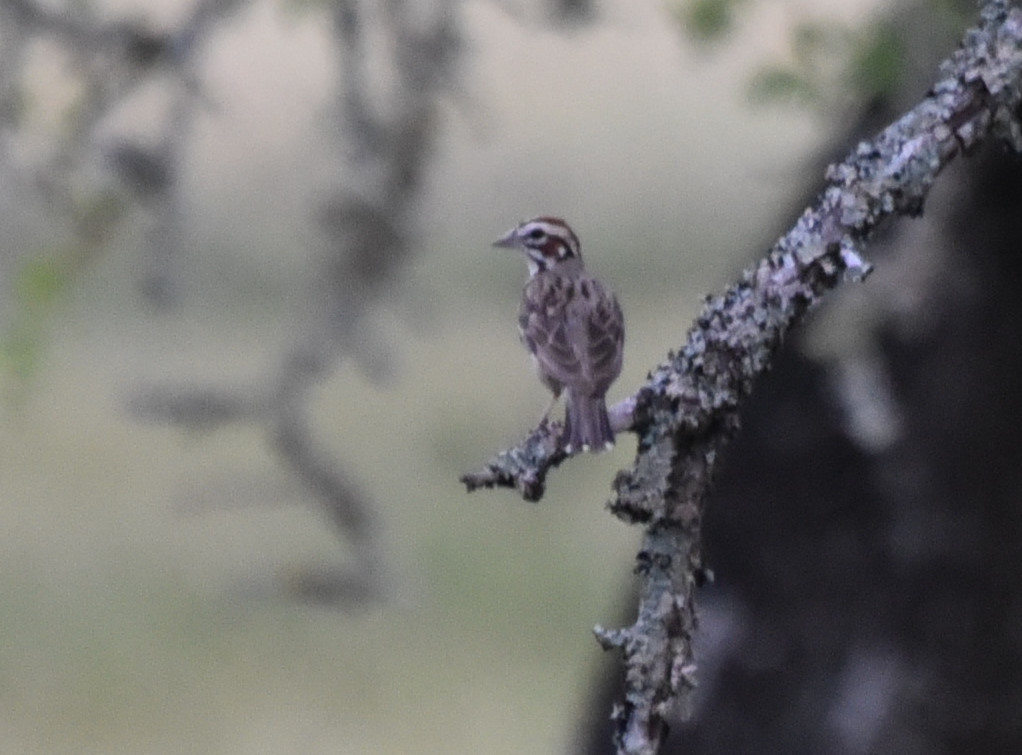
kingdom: Animalia
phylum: Chordata
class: Aves
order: Passeriformes
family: Passerellidae
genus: Chondestes
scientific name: Chondestes grammacus
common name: Lark sparrow
